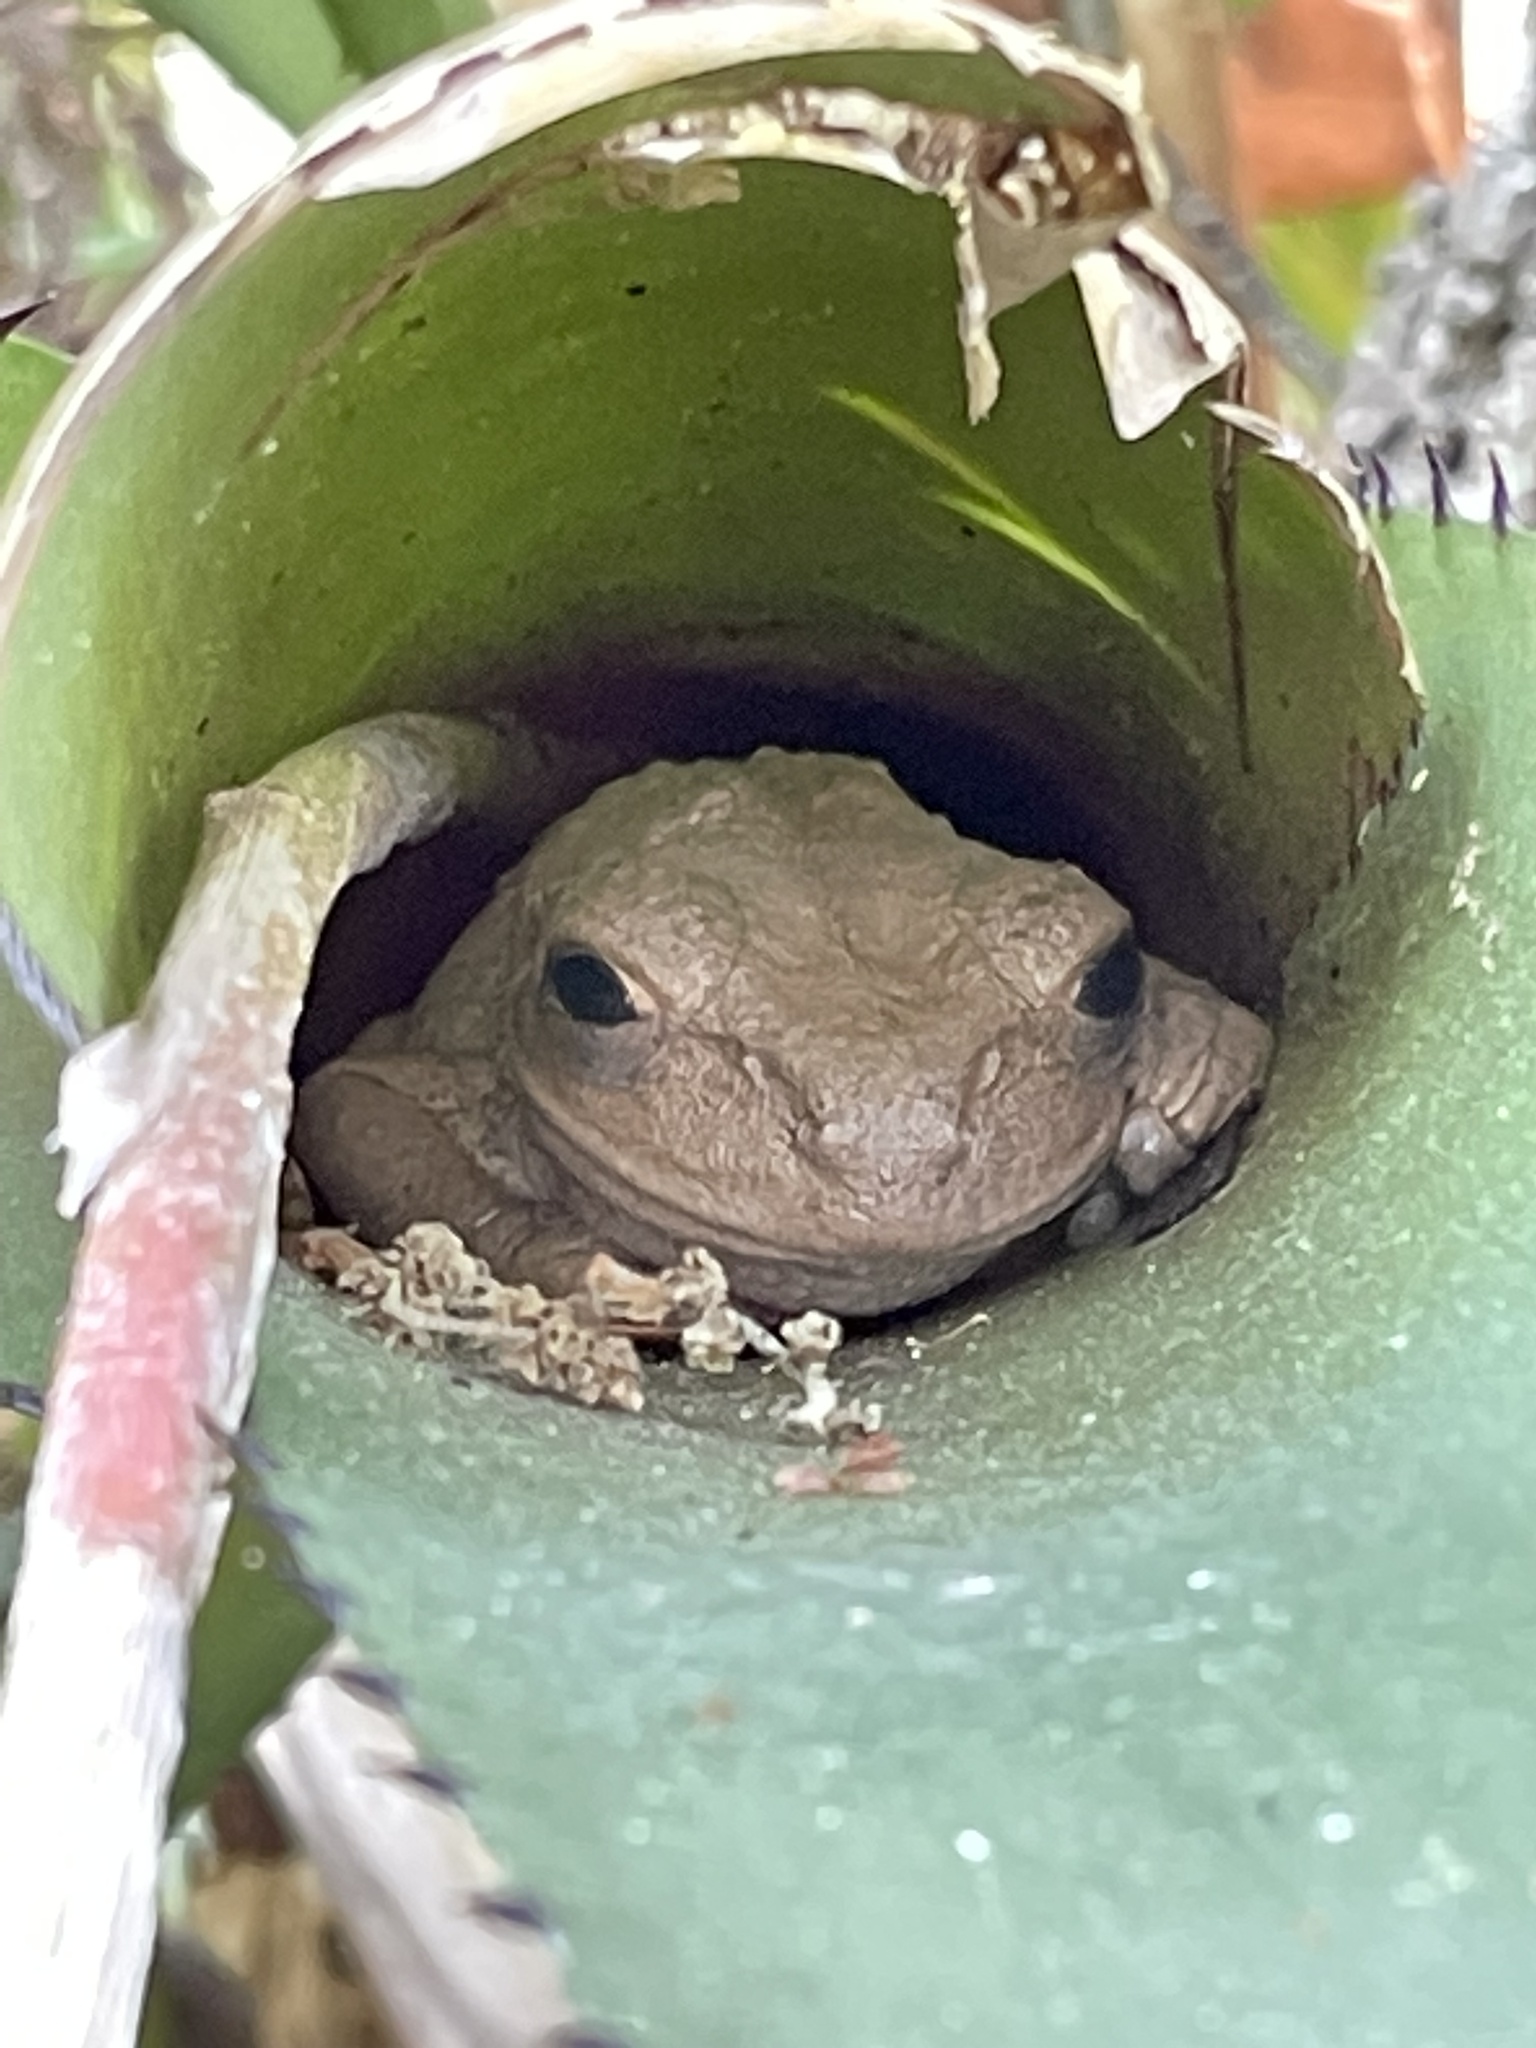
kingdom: Animalia
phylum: Chordata
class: Amphibia
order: Anura
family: Hylidae
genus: Osteopilus
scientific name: Osteopilus septentrionalis
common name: Cuban treefrog
